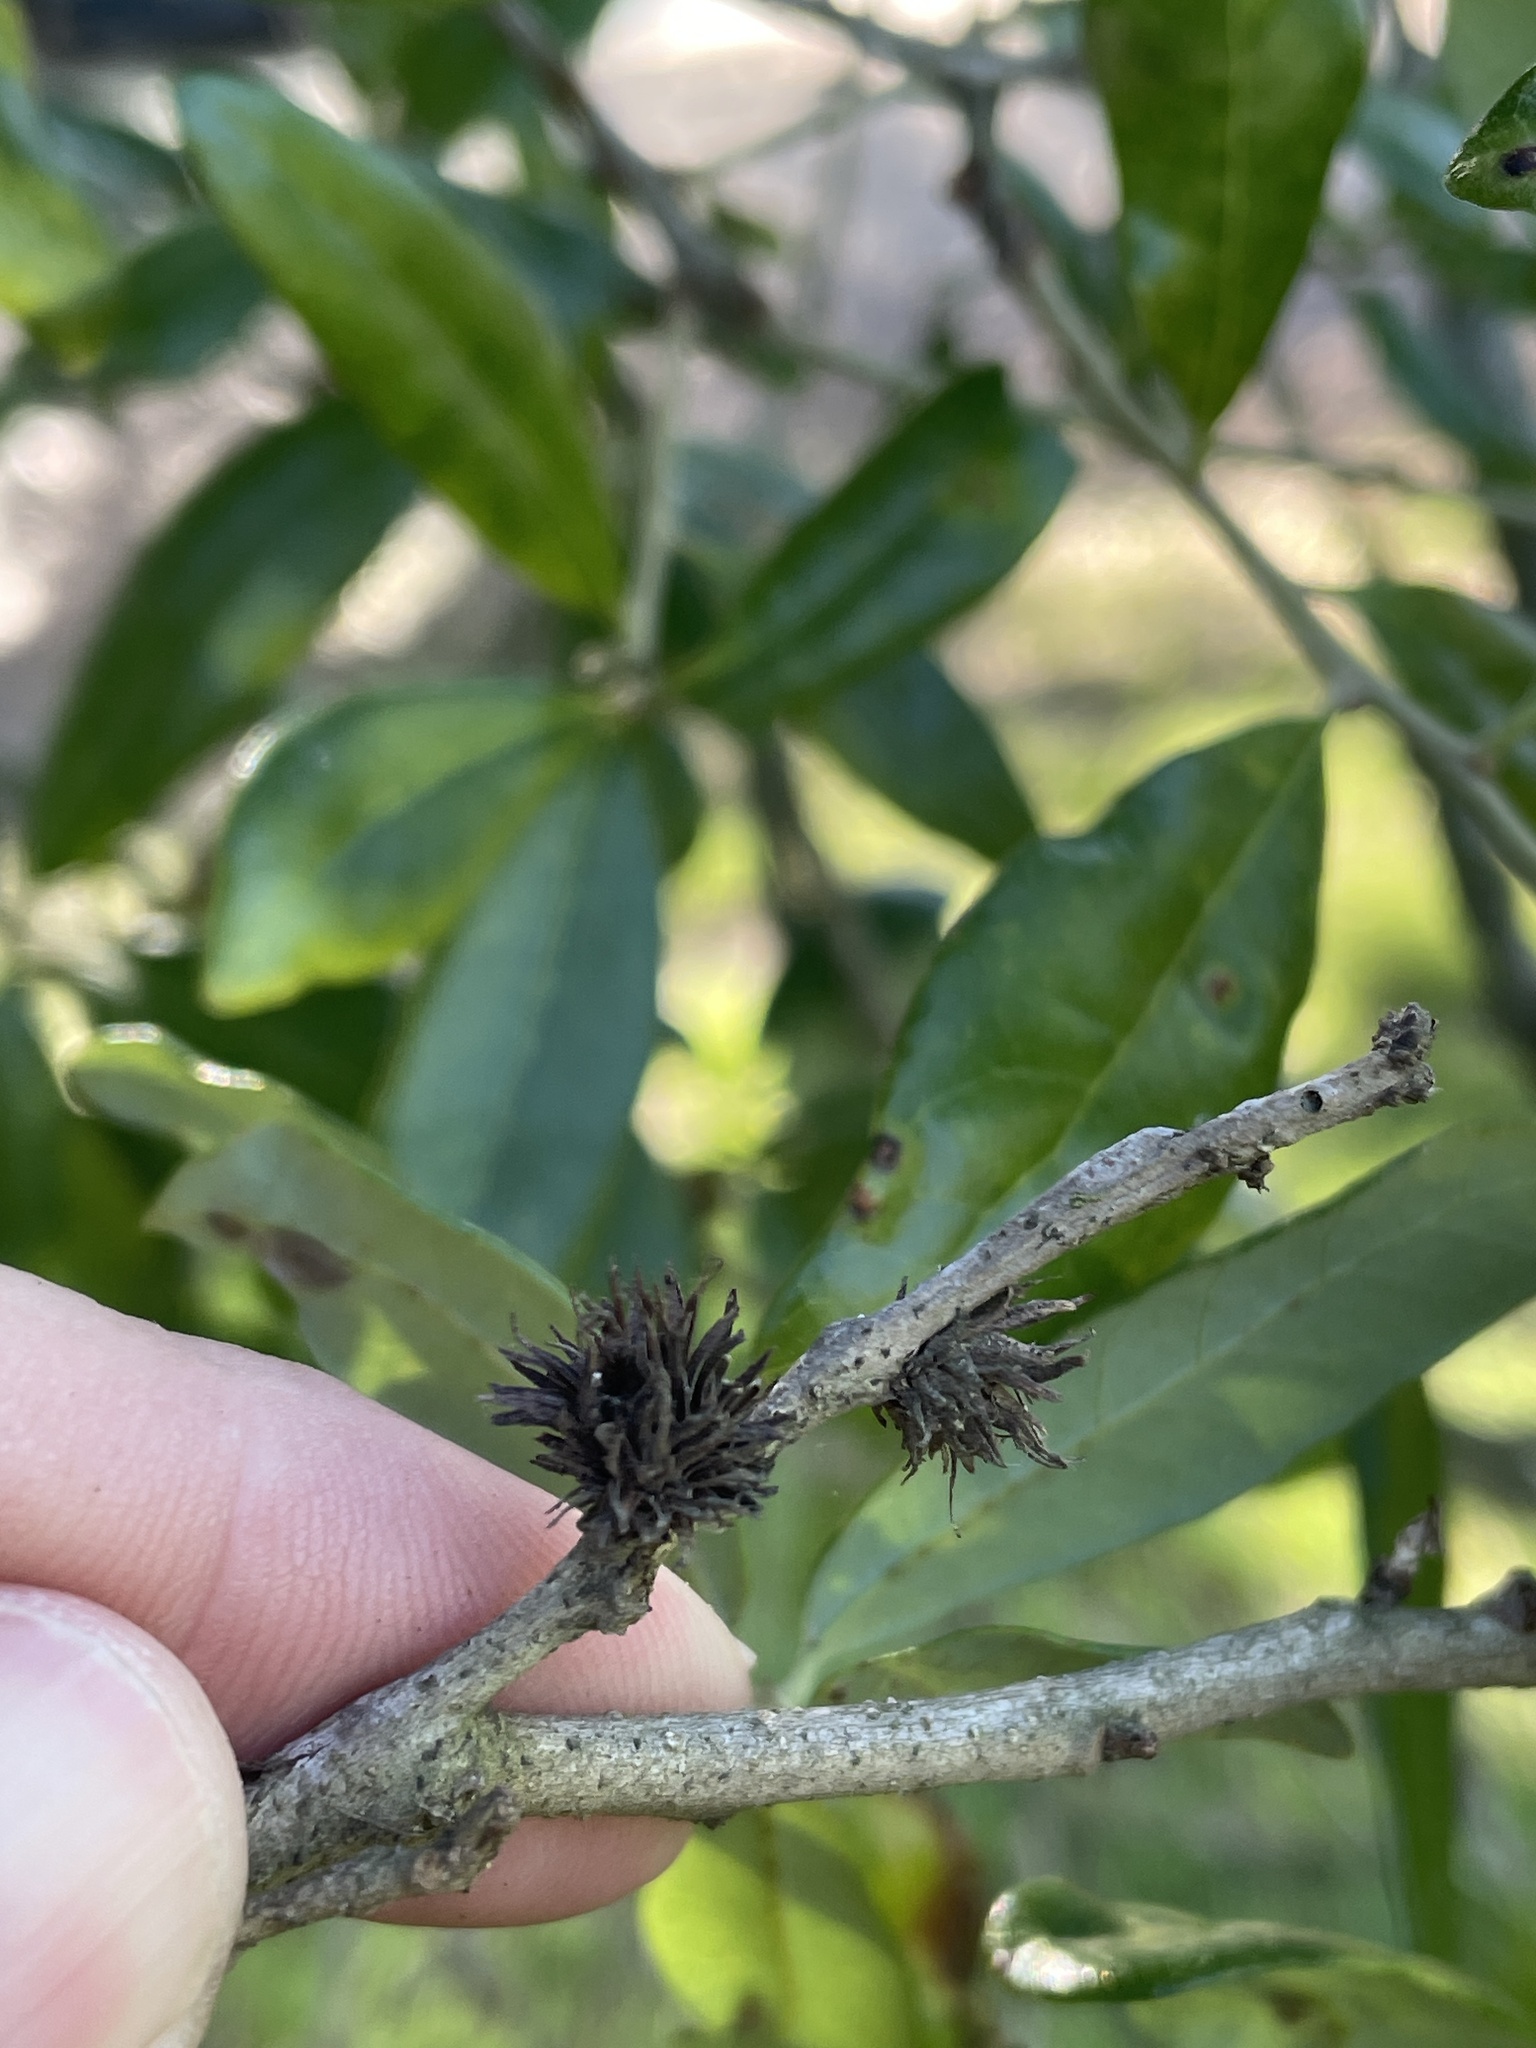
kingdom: Animalia
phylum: Arthropoda
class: Insecta
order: Hymenoptera
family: Cynipidae
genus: Andricus
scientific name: Andricus quercusfoliatus
